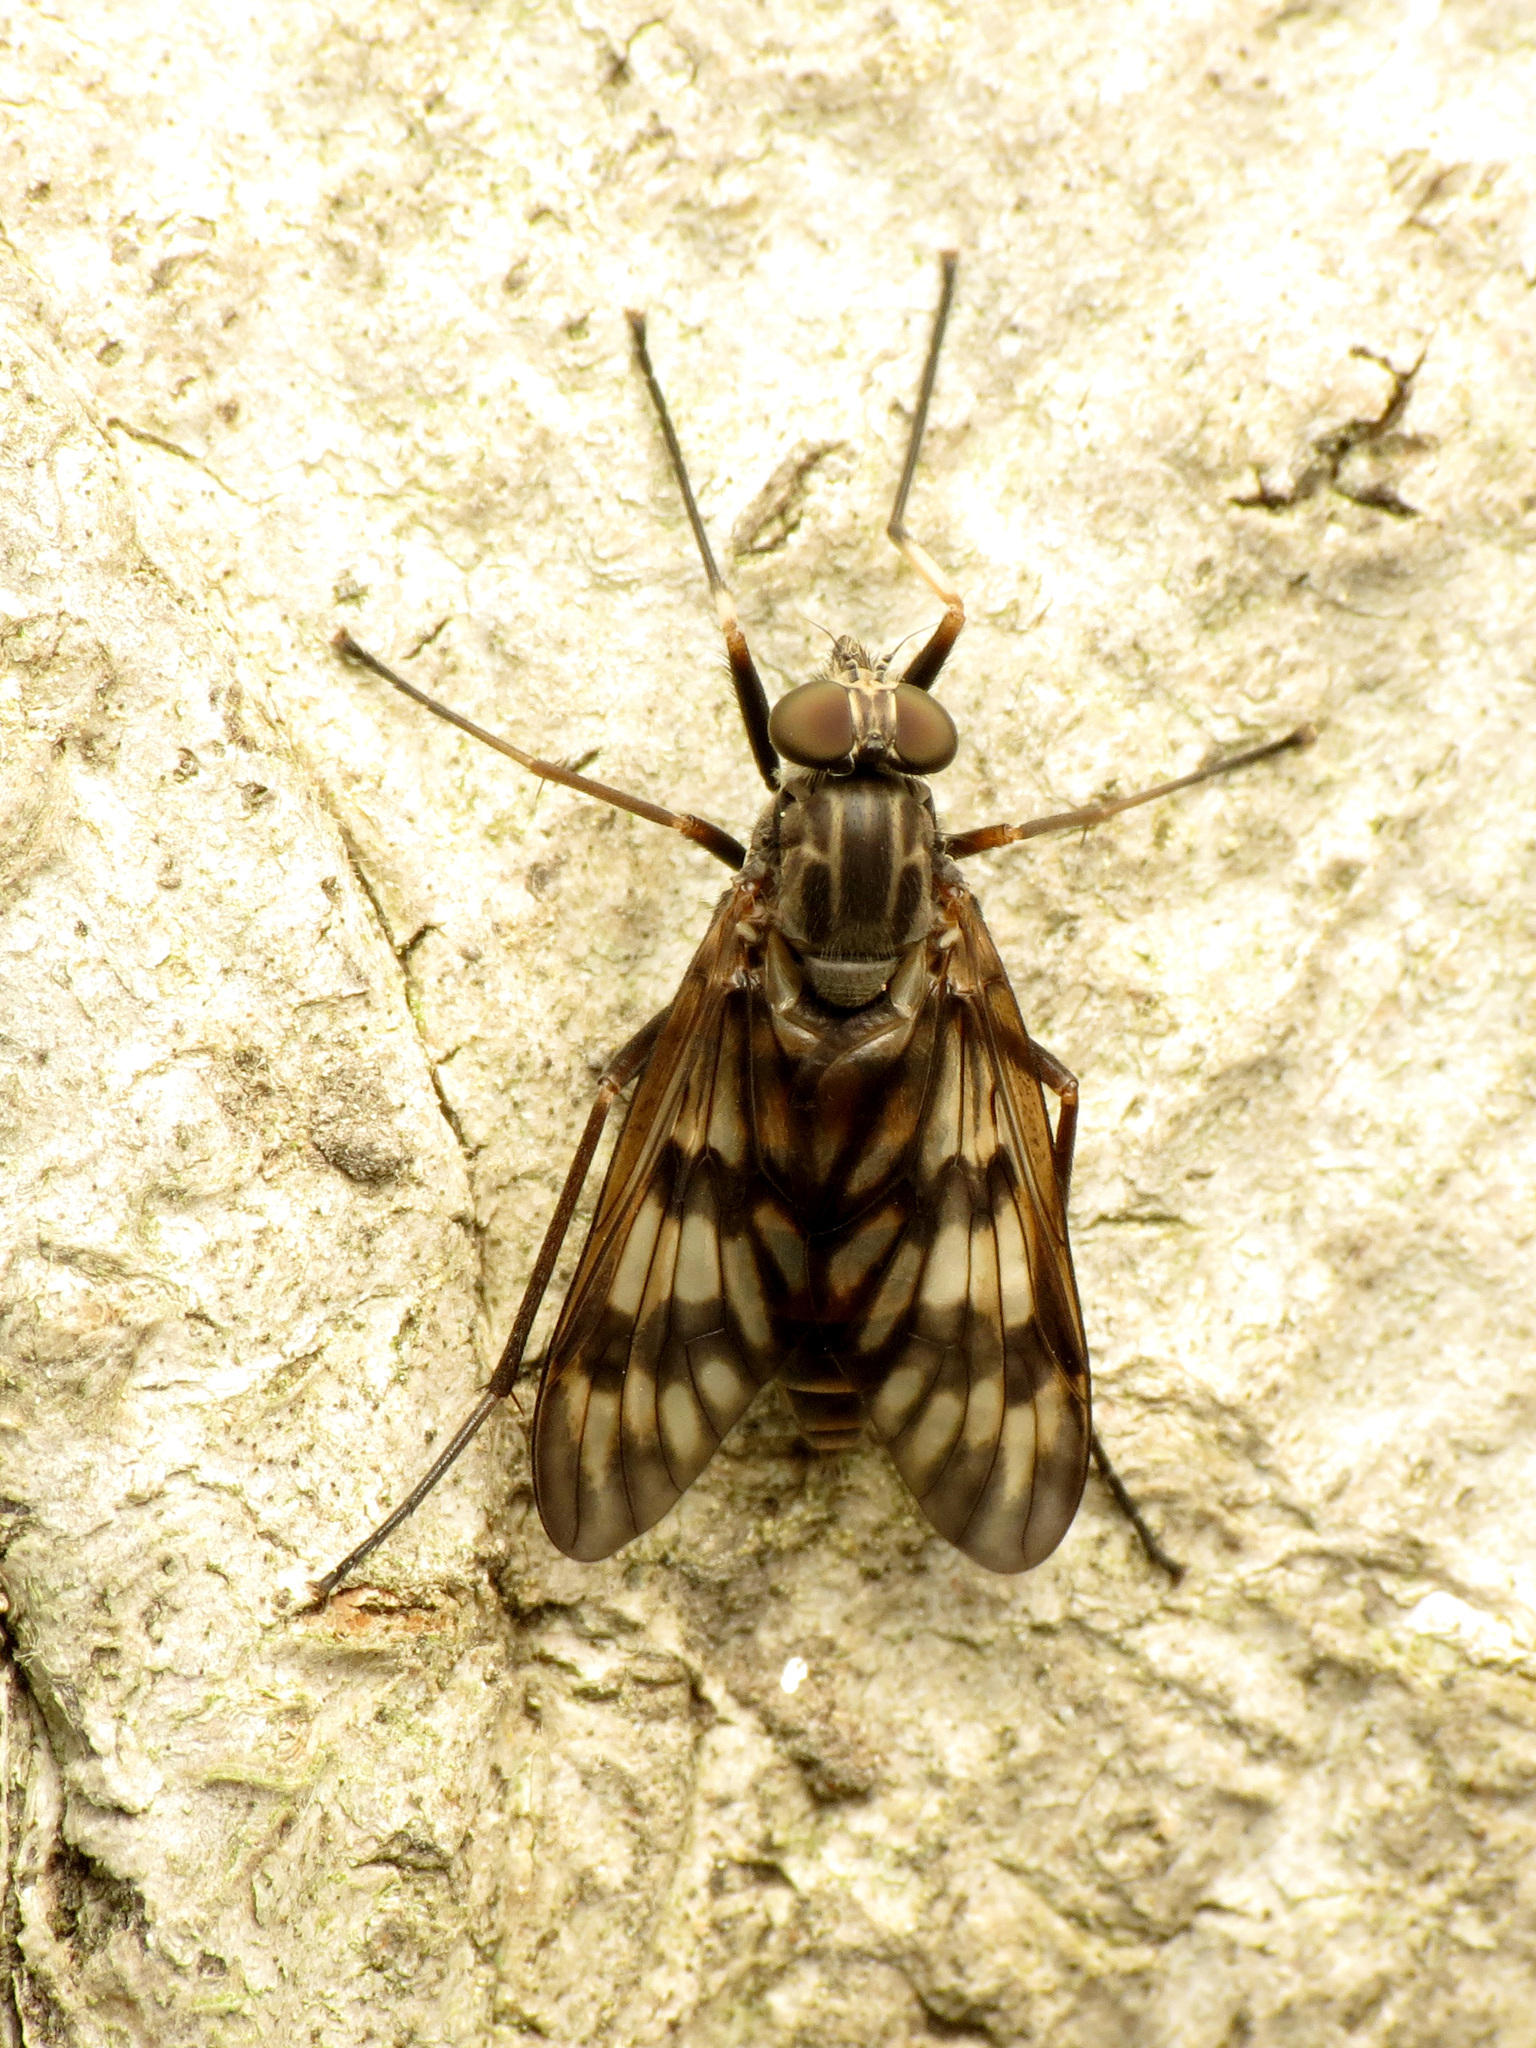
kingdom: Animalia
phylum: Arthropoda
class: Insecta
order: Diptera
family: Rhagionidae
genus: Rhagio
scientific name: Rhagio mystaceus
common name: Common snipe fly
